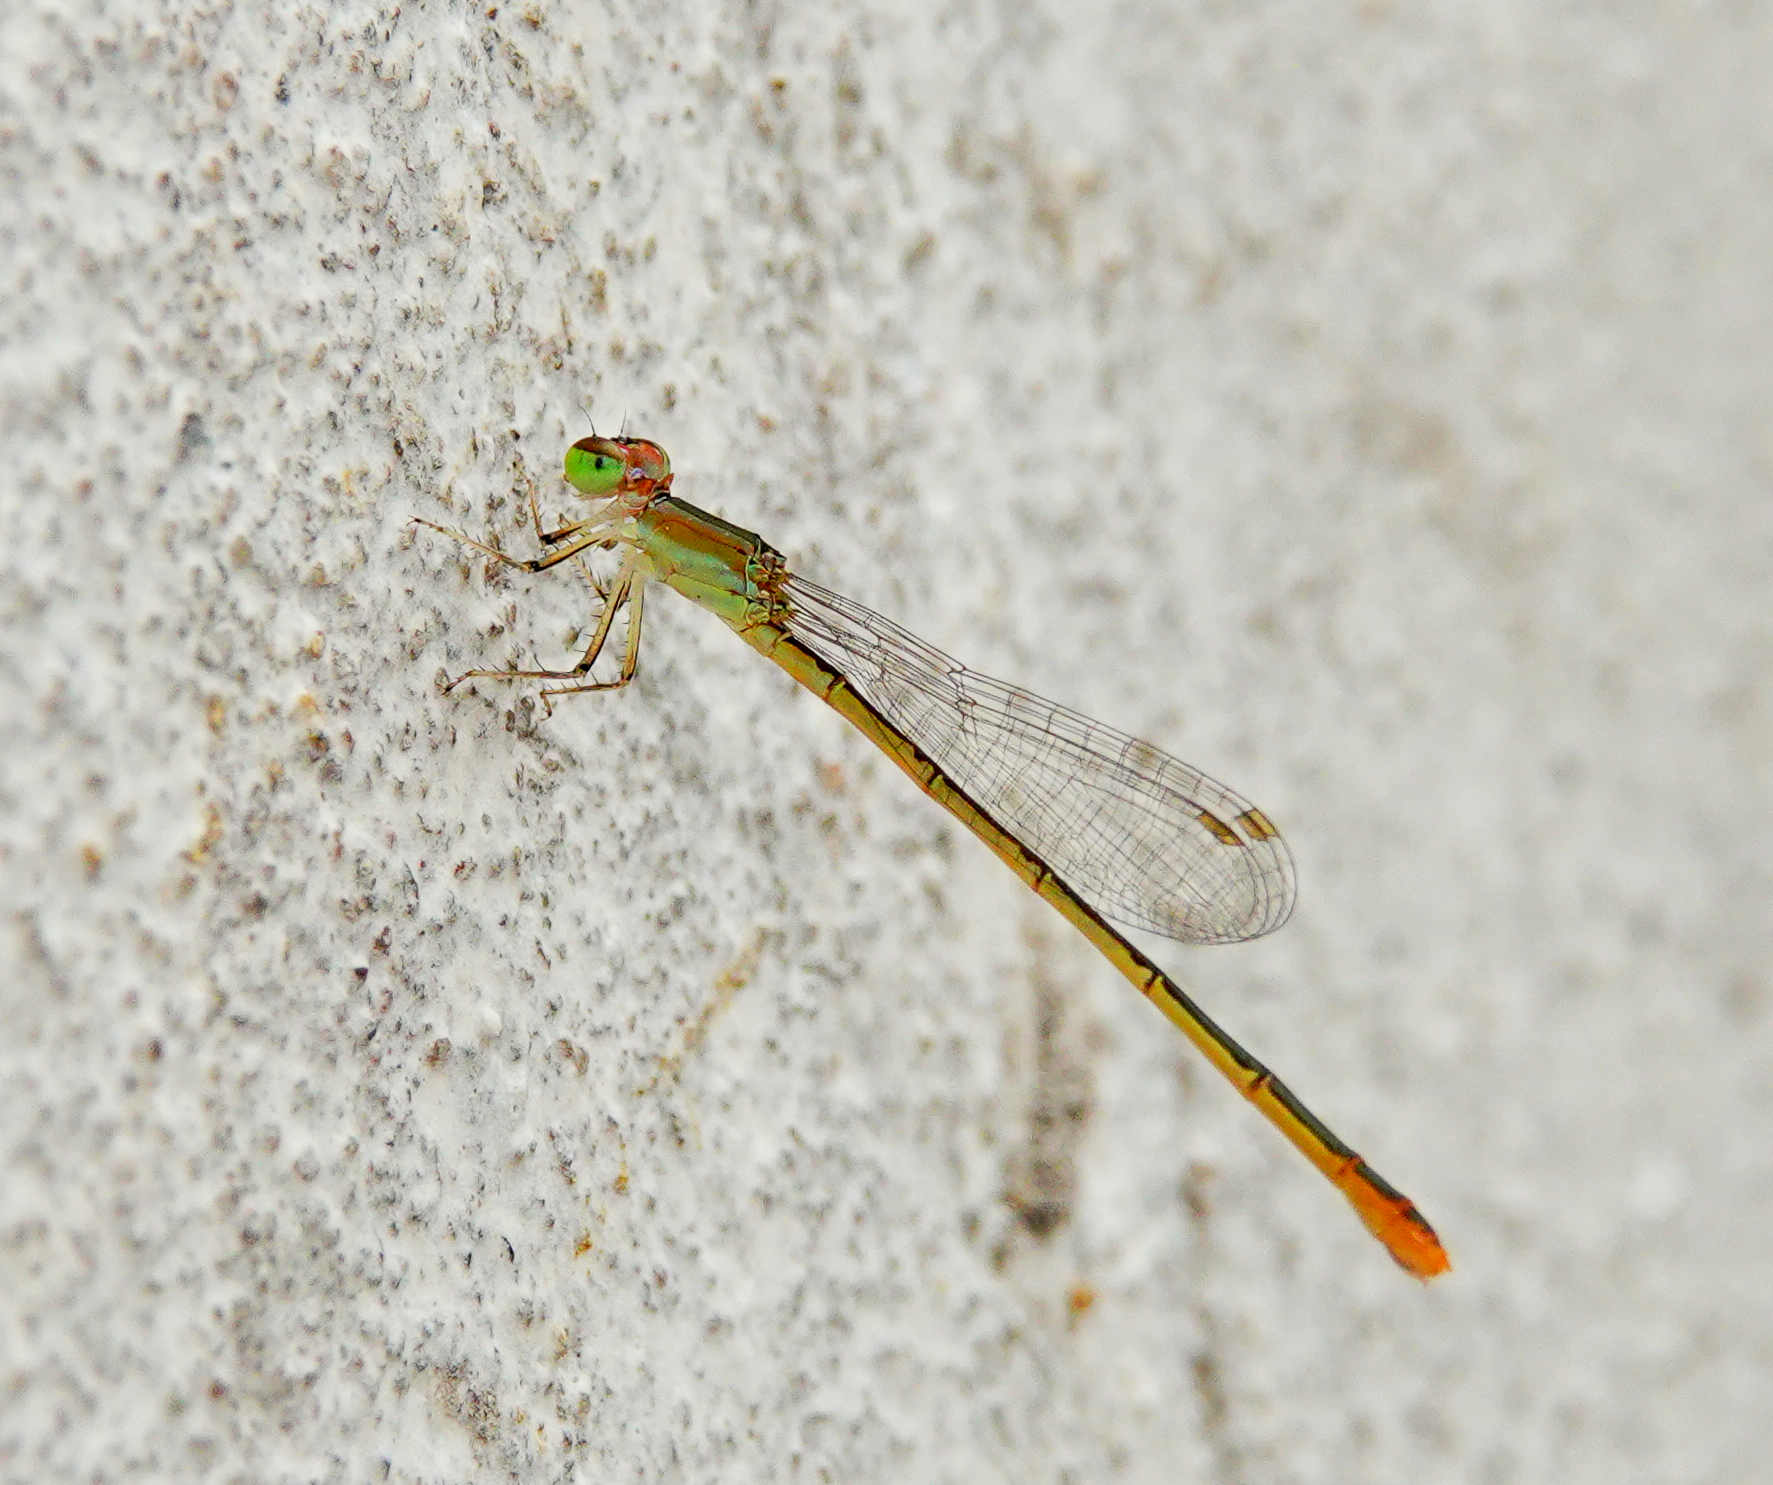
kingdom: Animalia
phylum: Arthropoda
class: Insecta
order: Odonata
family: Coenagrionidae
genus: Agriocnemis
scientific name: Agriocnemis pygmaea
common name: Pygmy wisp
